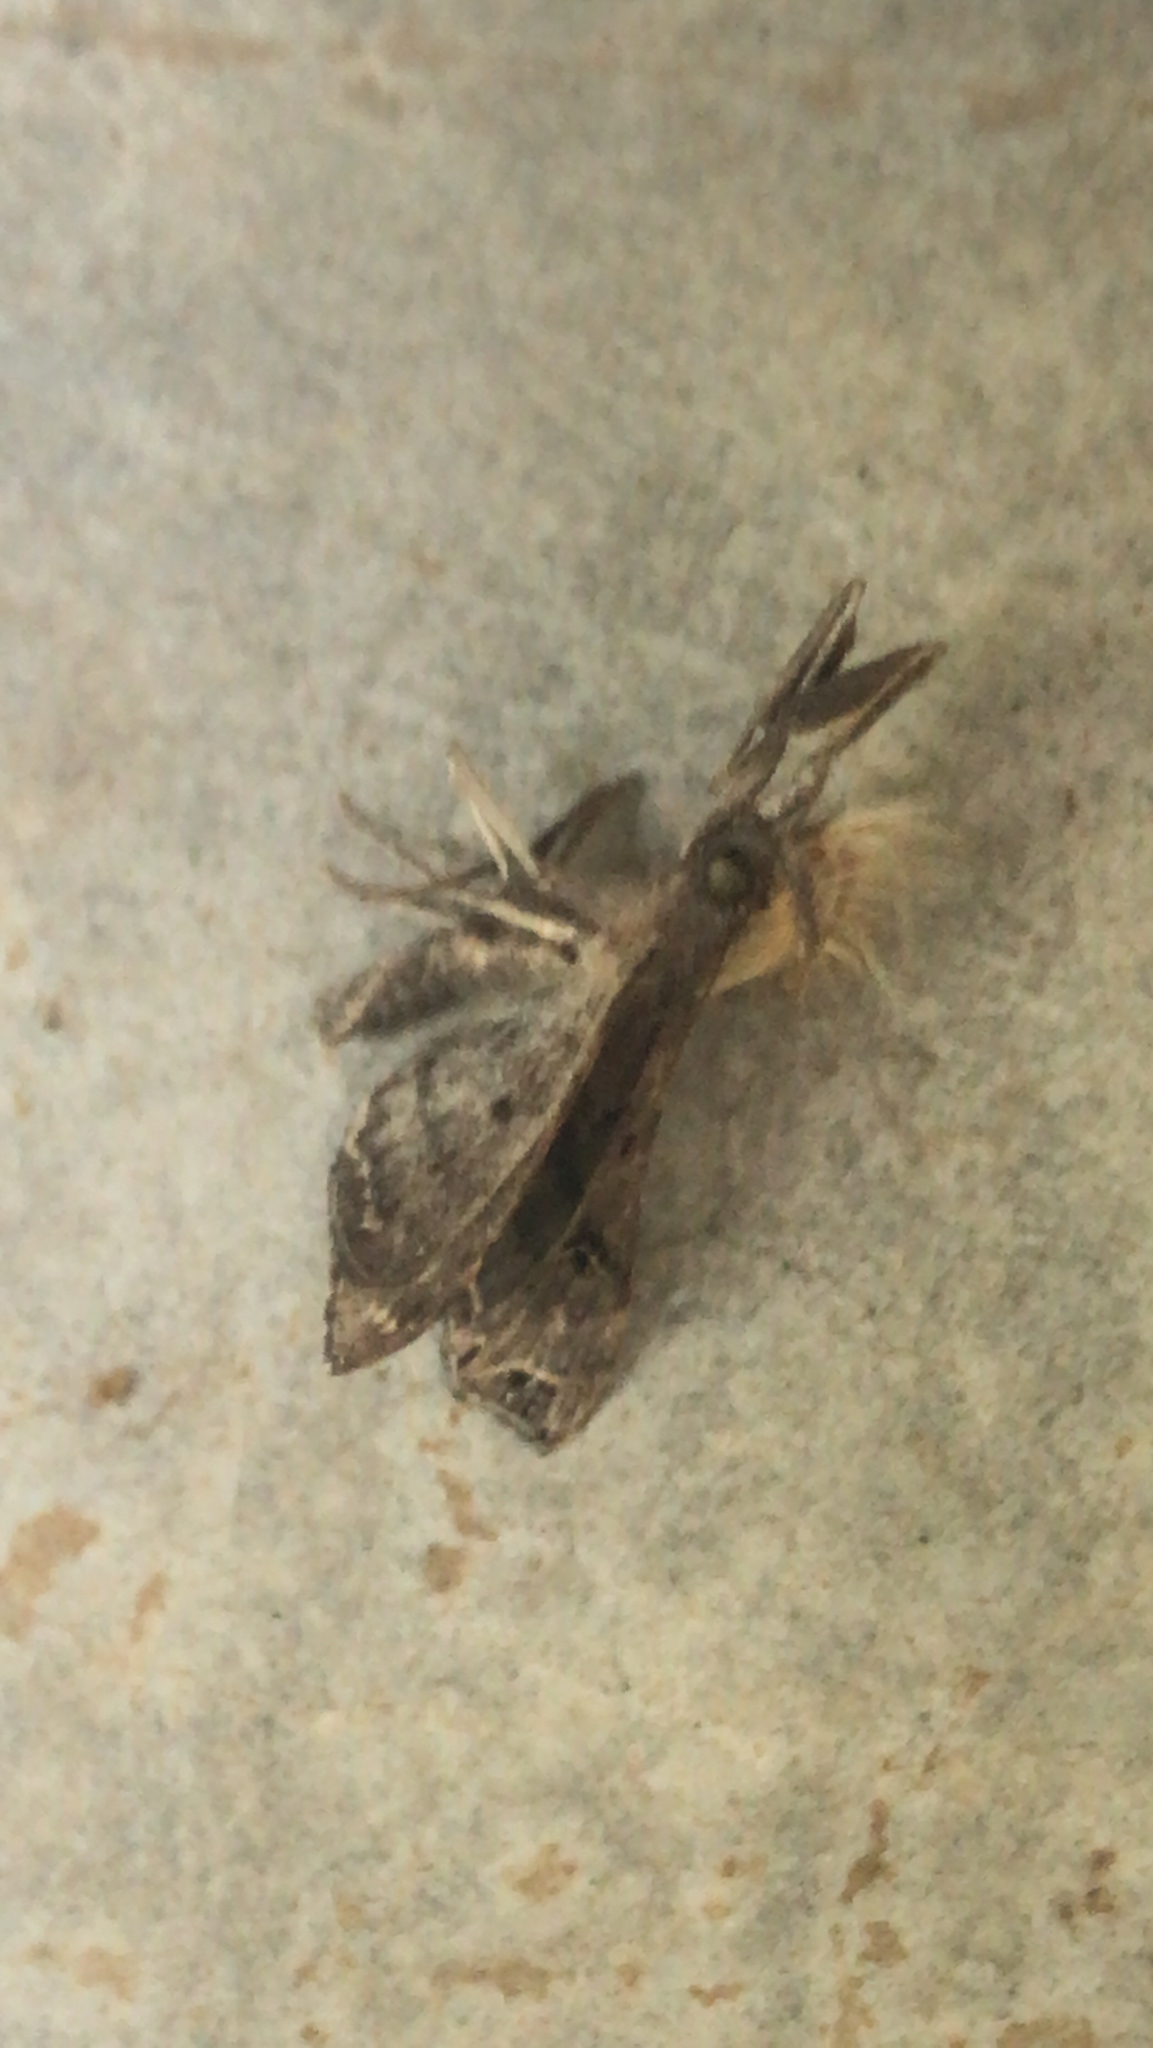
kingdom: Animalia
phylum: Arthropoda
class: Insecta
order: Lepidoptera
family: Erebidae
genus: Palthis
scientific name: Palthis asopialis
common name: Faint-spotted palthis moth
